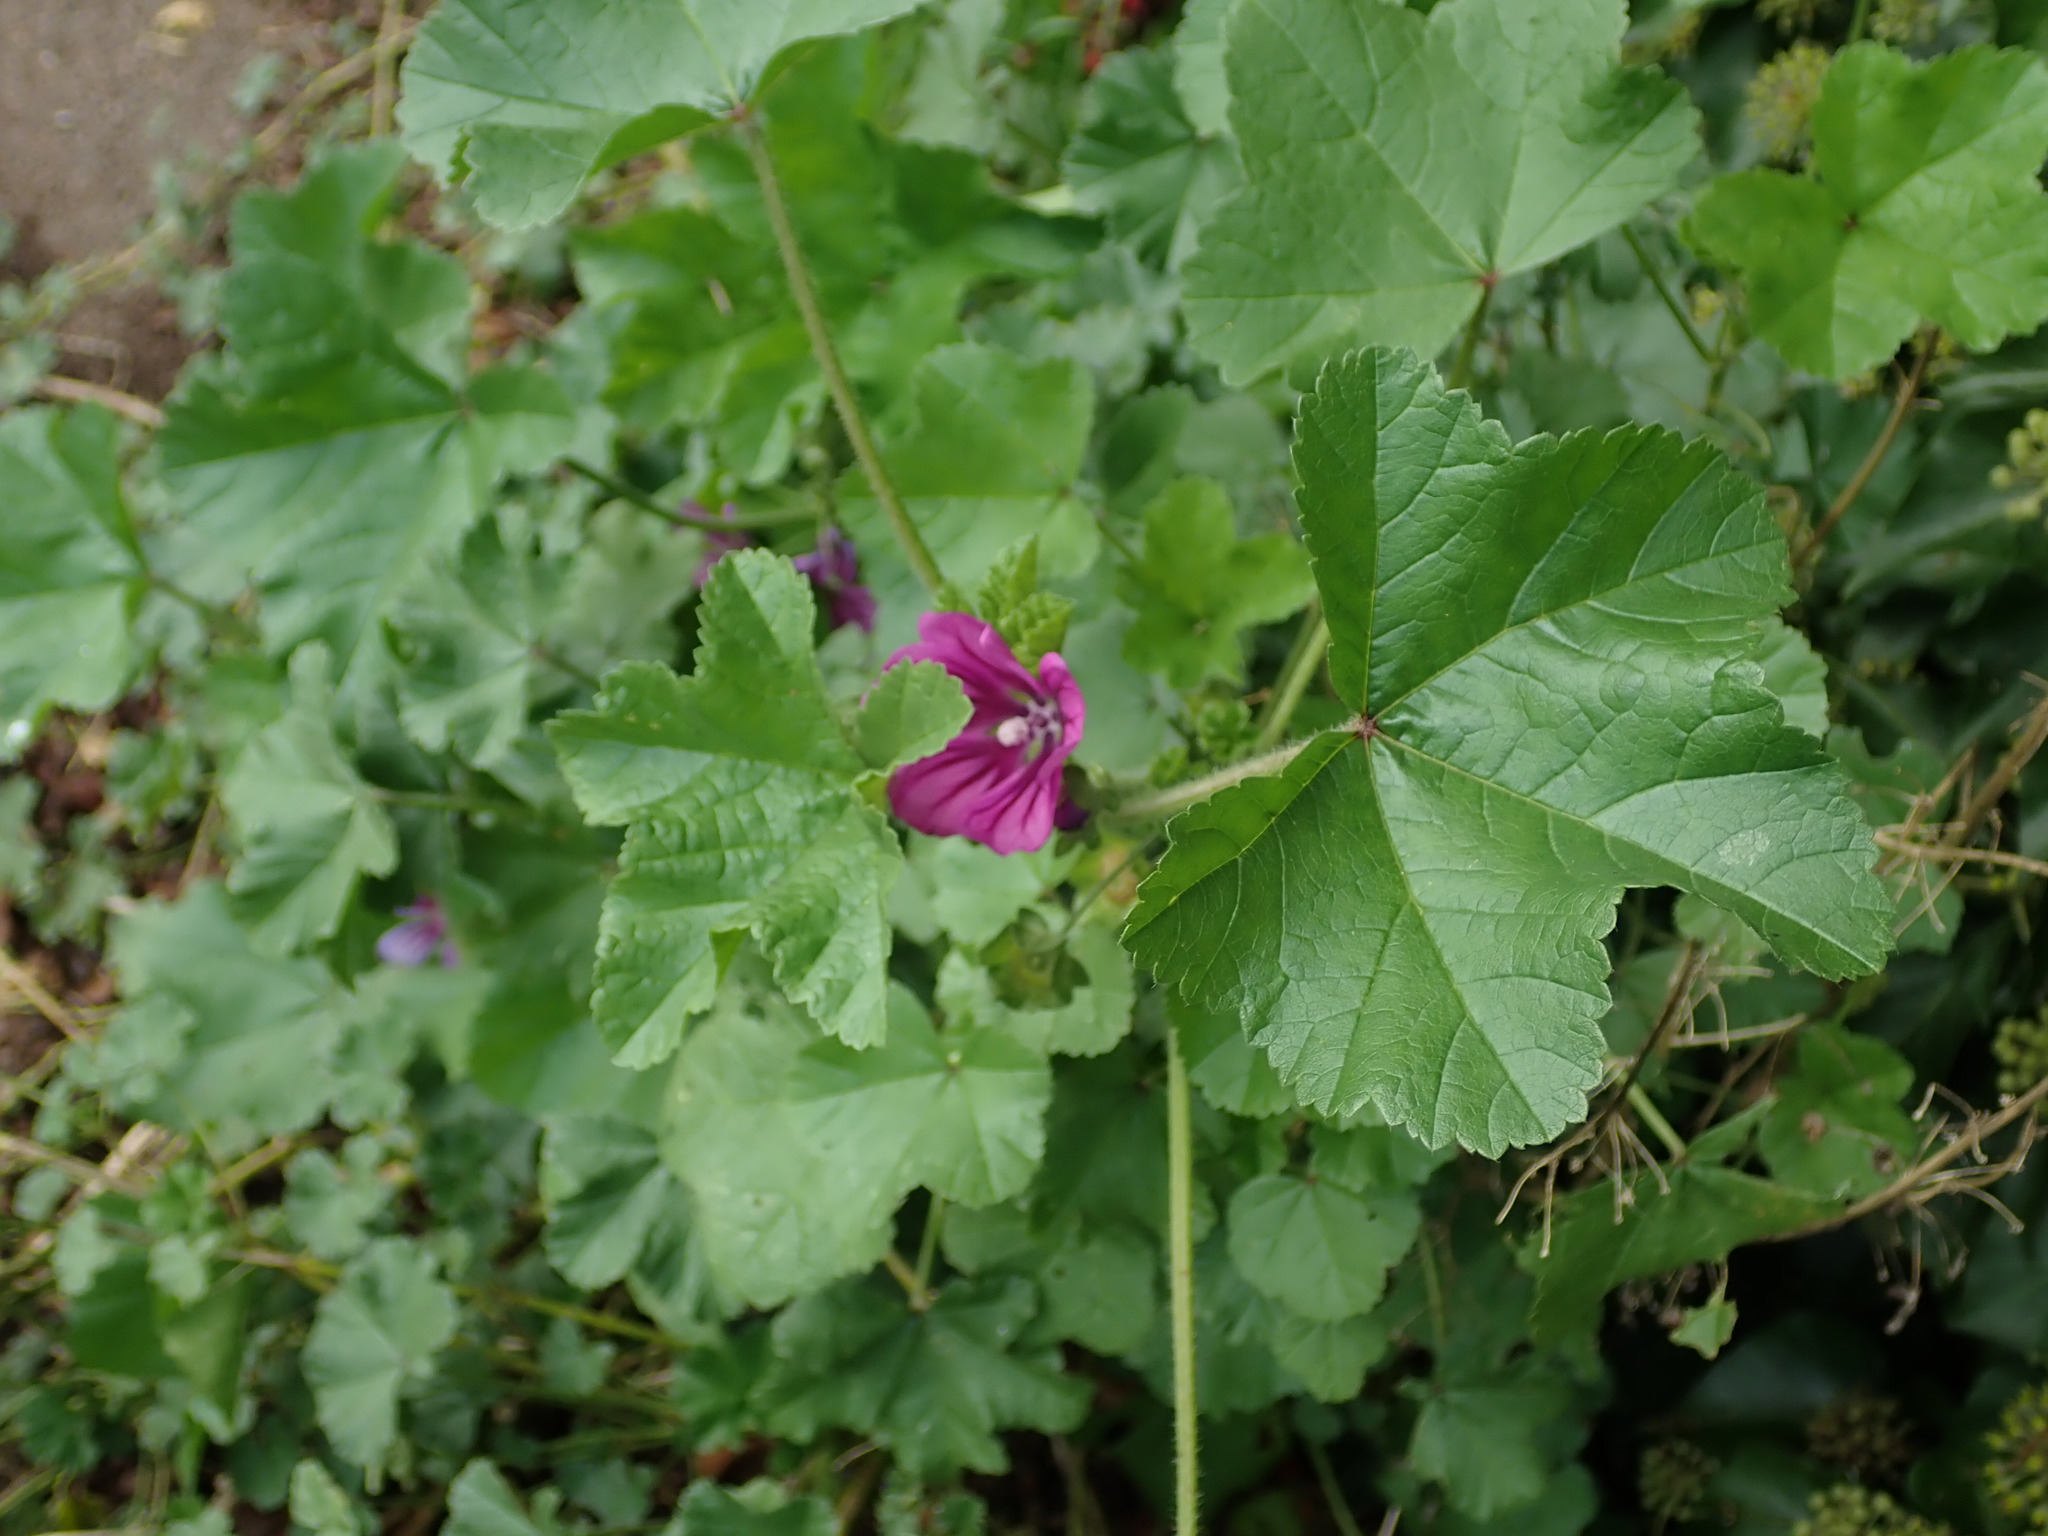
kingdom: Plantae
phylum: Tracheophyta
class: Magnoliopsida
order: Malvales
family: Malvaceae
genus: Malva
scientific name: Malva sylvestris
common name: Common mallow
